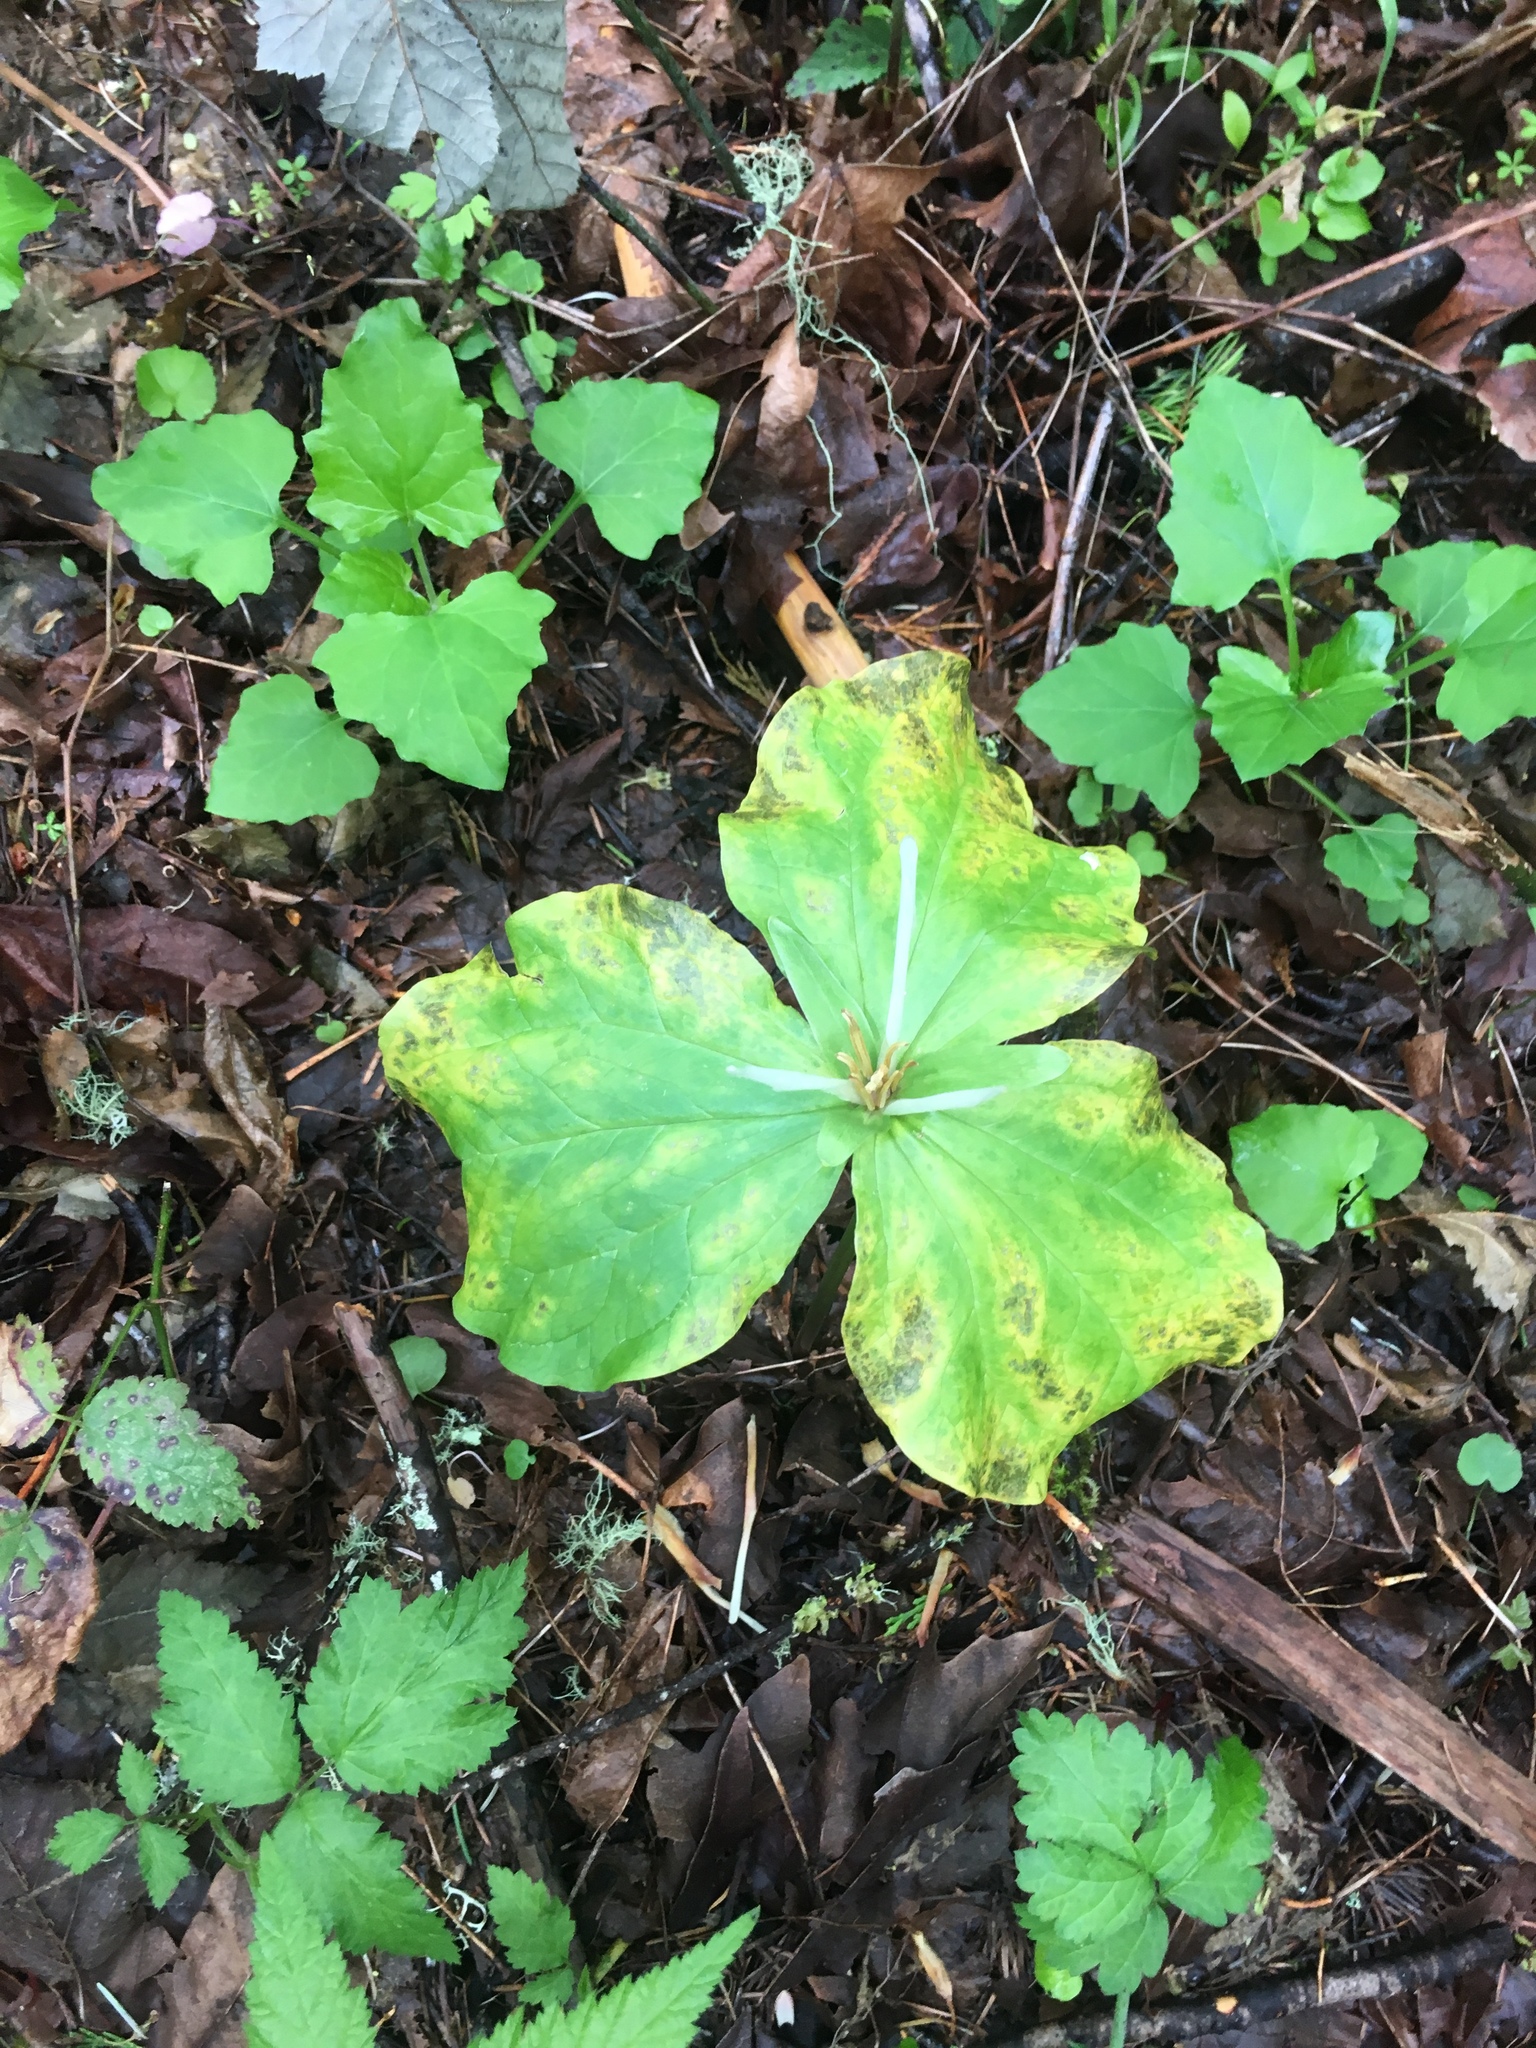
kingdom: Plantae
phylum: Tracheophyta
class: Liliopsida
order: Liliales
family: Melanthiaceae
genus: Trillium
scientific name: Trillium albidum
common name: Freeman's trillium
